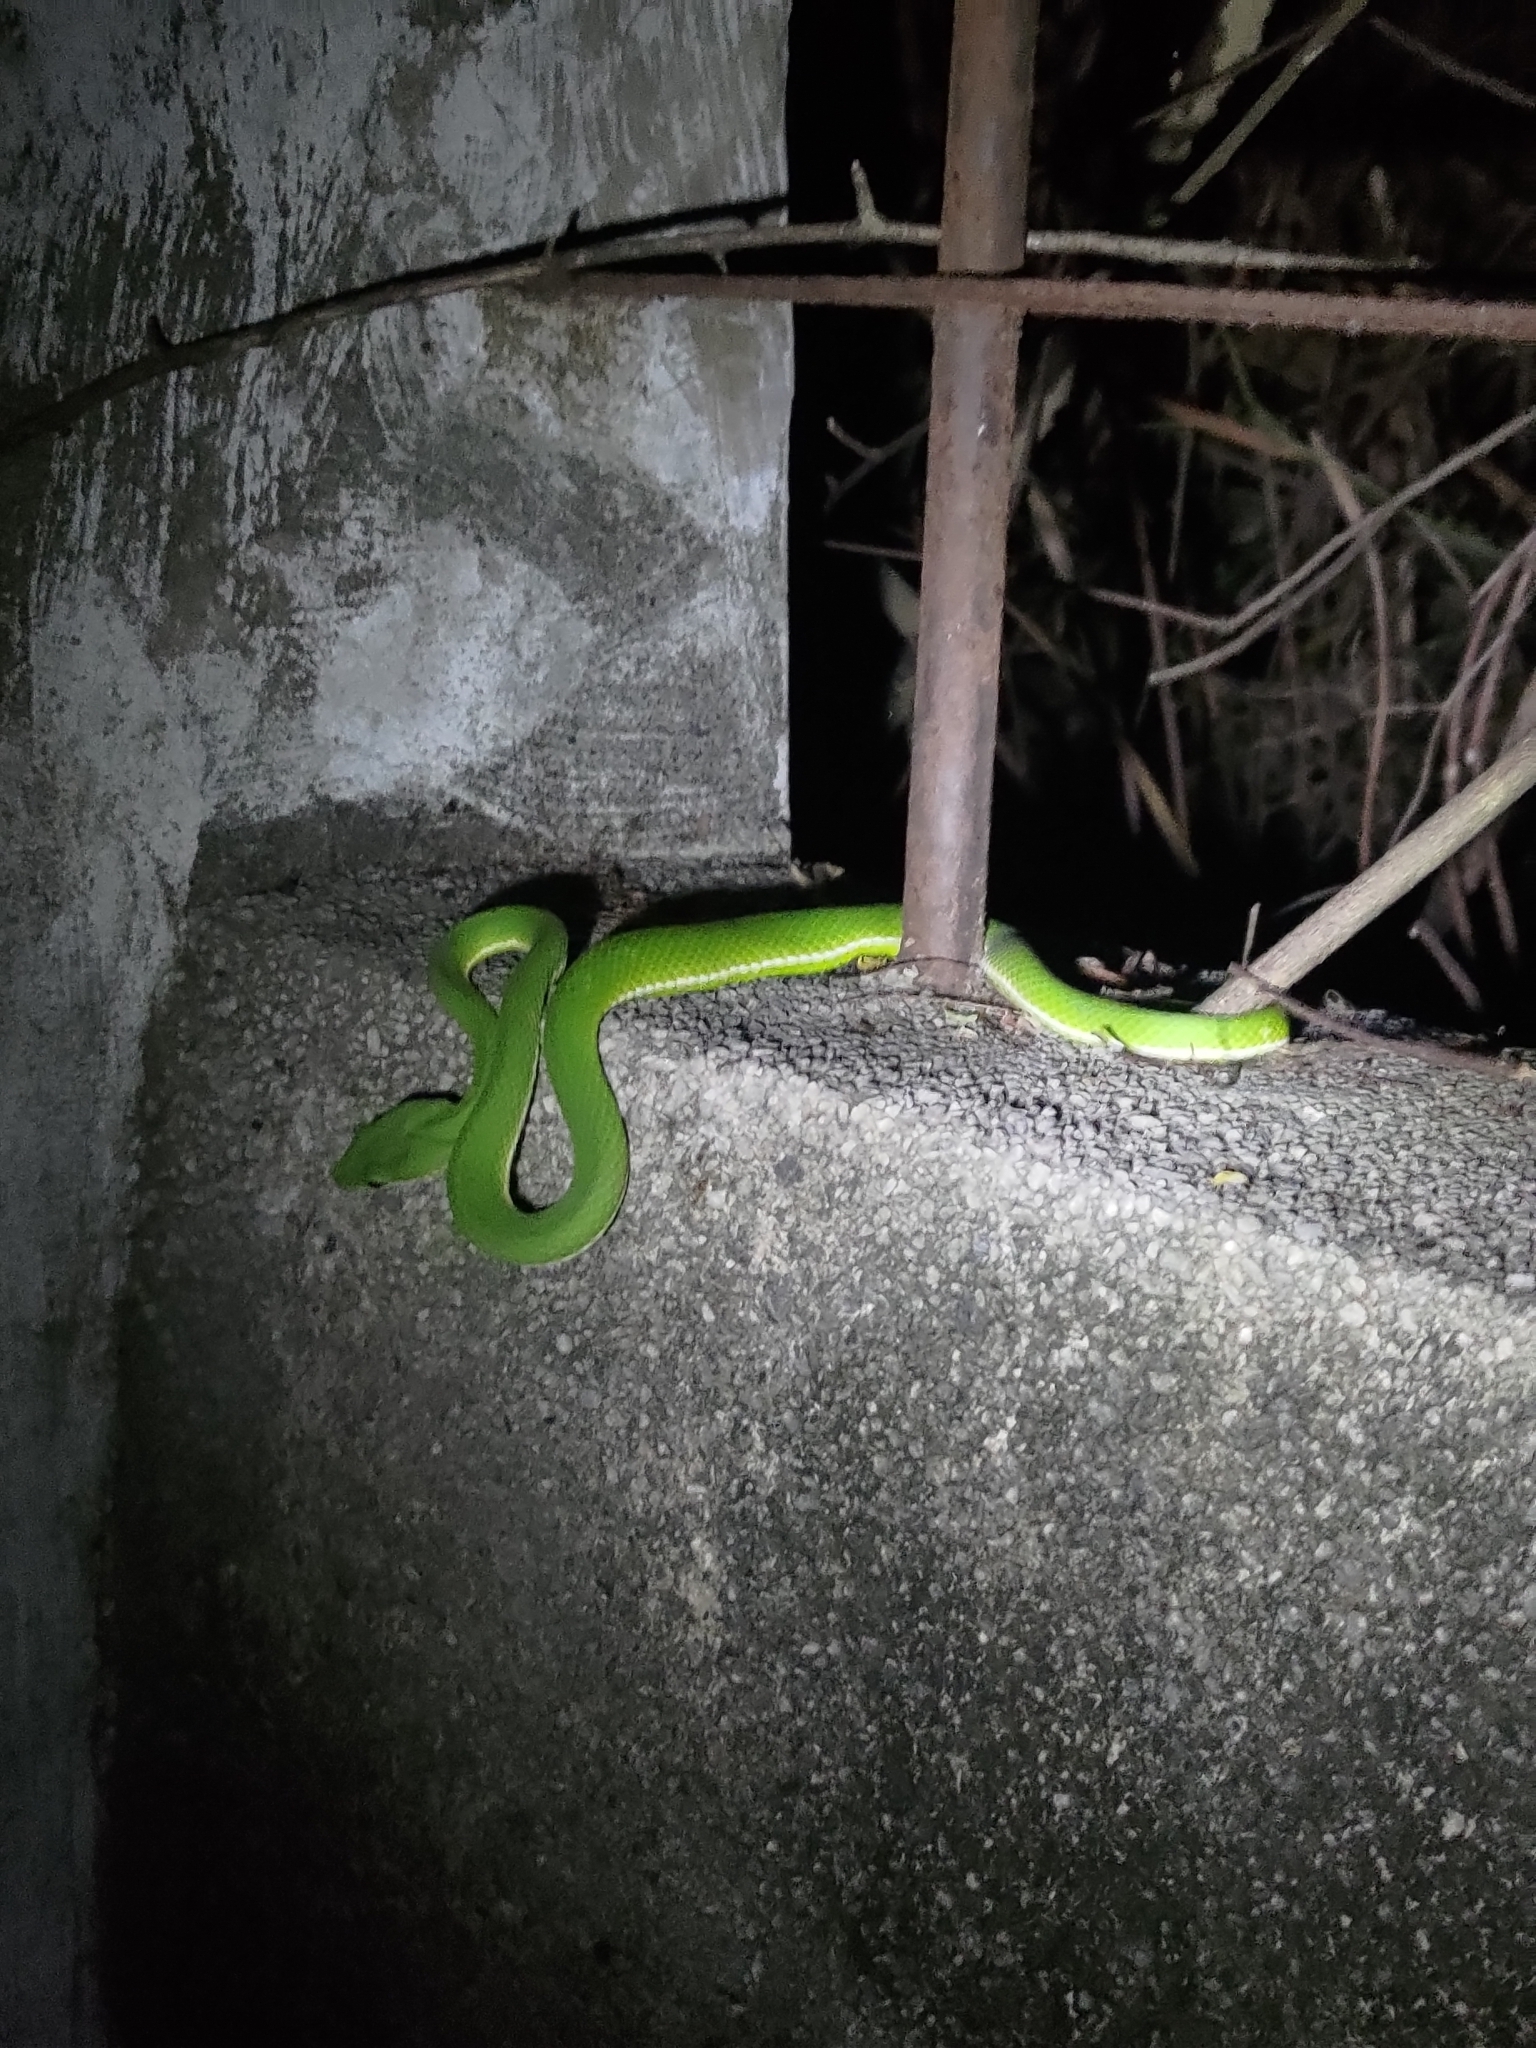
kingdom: Animalia
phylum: Chordata
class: Squamata
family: Viperidae
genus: Trimeresurus
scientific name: Trimeresurus stejnegeri
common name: Chen’s bamboo pit viper
